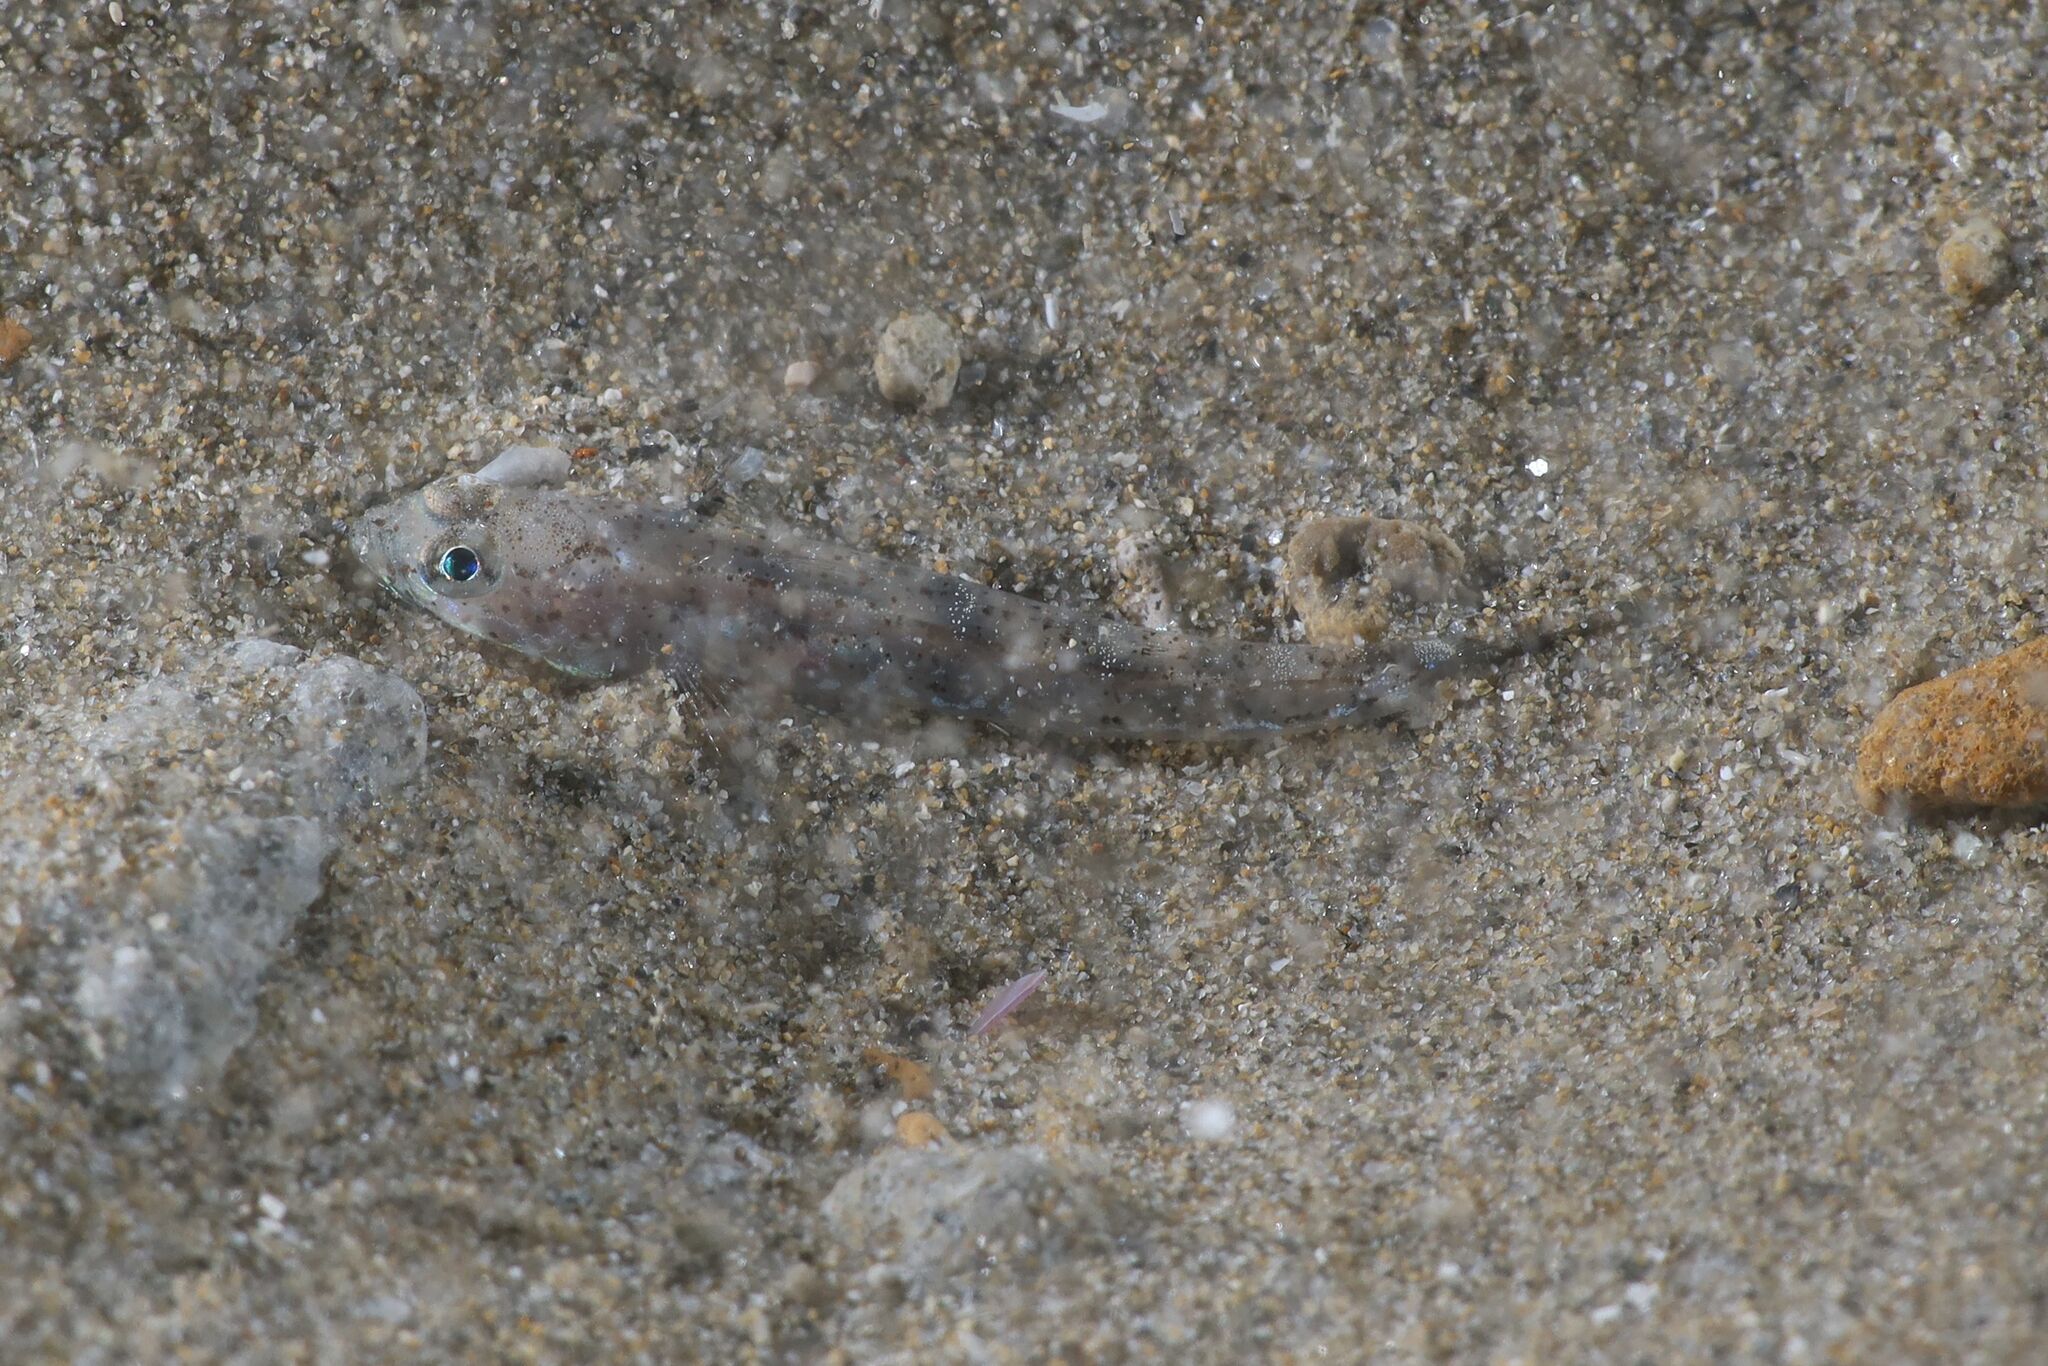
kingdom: Animalia
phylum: Chordata
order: Perciformes
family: Gobiidae
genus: Pomatoschistus
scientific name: Pomatoschistus marmoratus
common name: Marbled goby
